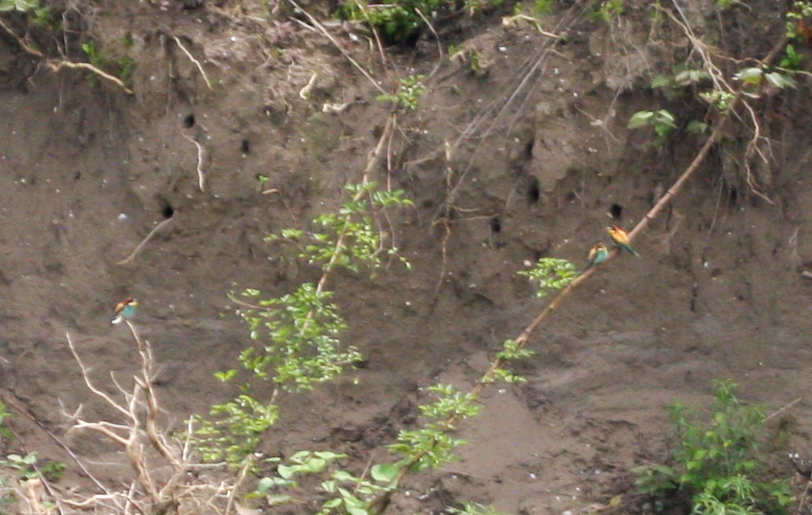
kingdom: Animalia
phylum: Chordata
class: Aves
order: Coraciiformes
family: Meropidae
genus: Merops
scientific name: Merops apiaster
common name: European bee-eater
